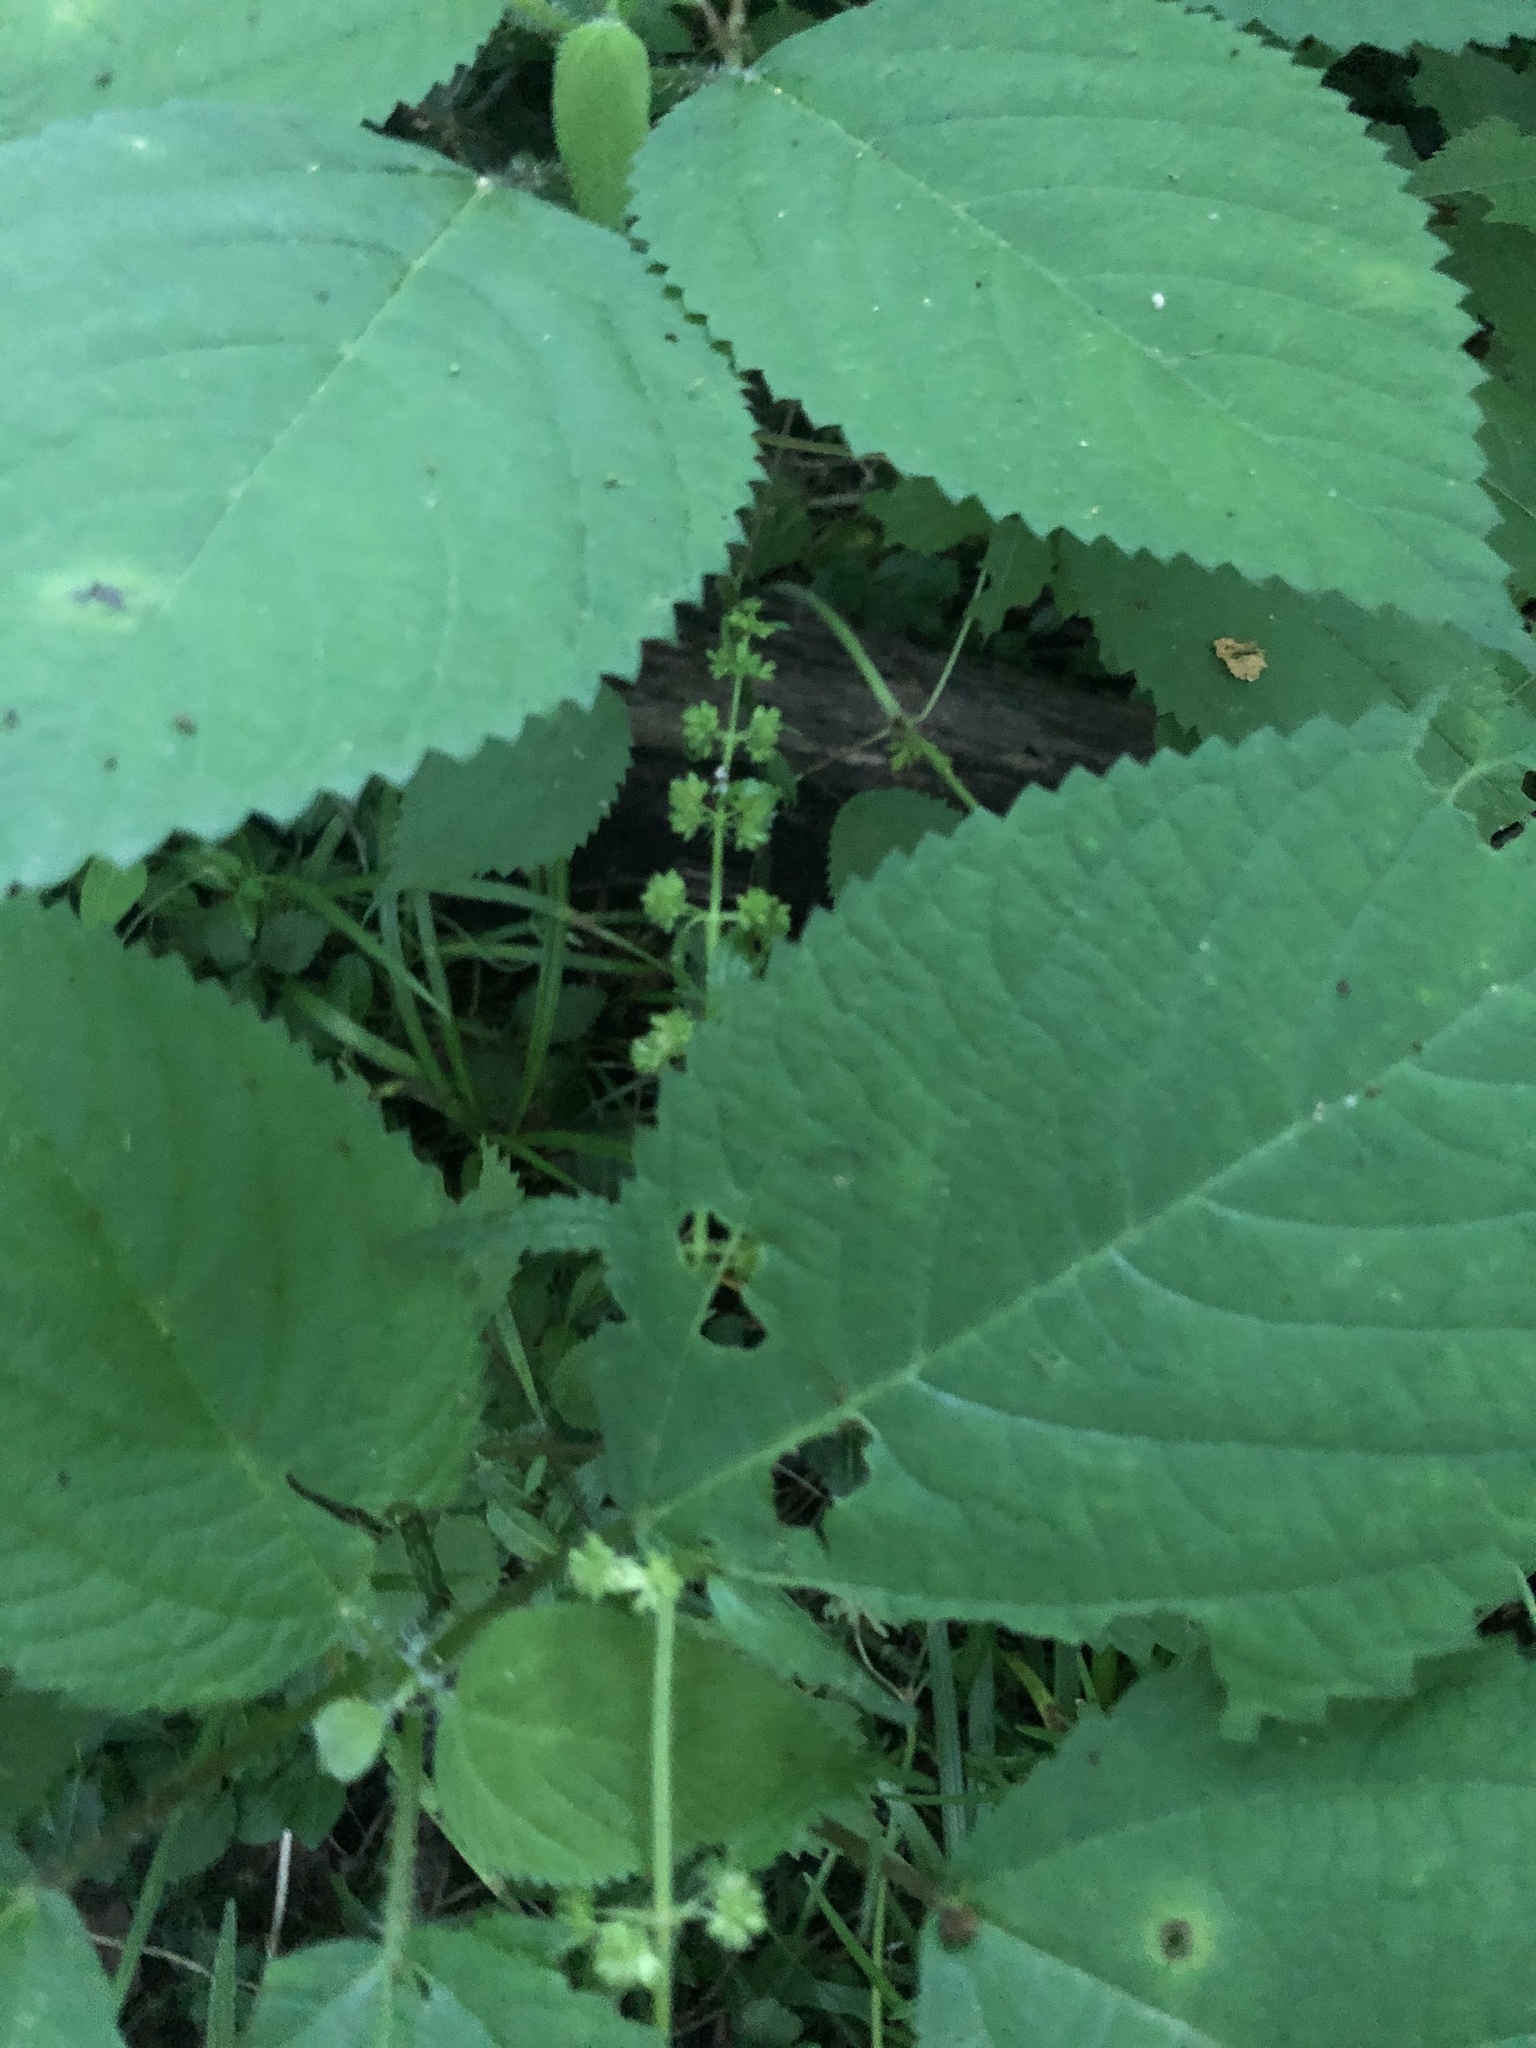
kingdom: Plantae
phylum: Tracheophyta
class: Magnoliopsida
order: Rosales
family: Urticaceae
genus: Urtica
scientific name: Urtica chamaedryoides
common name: Heart-leaf nettle
